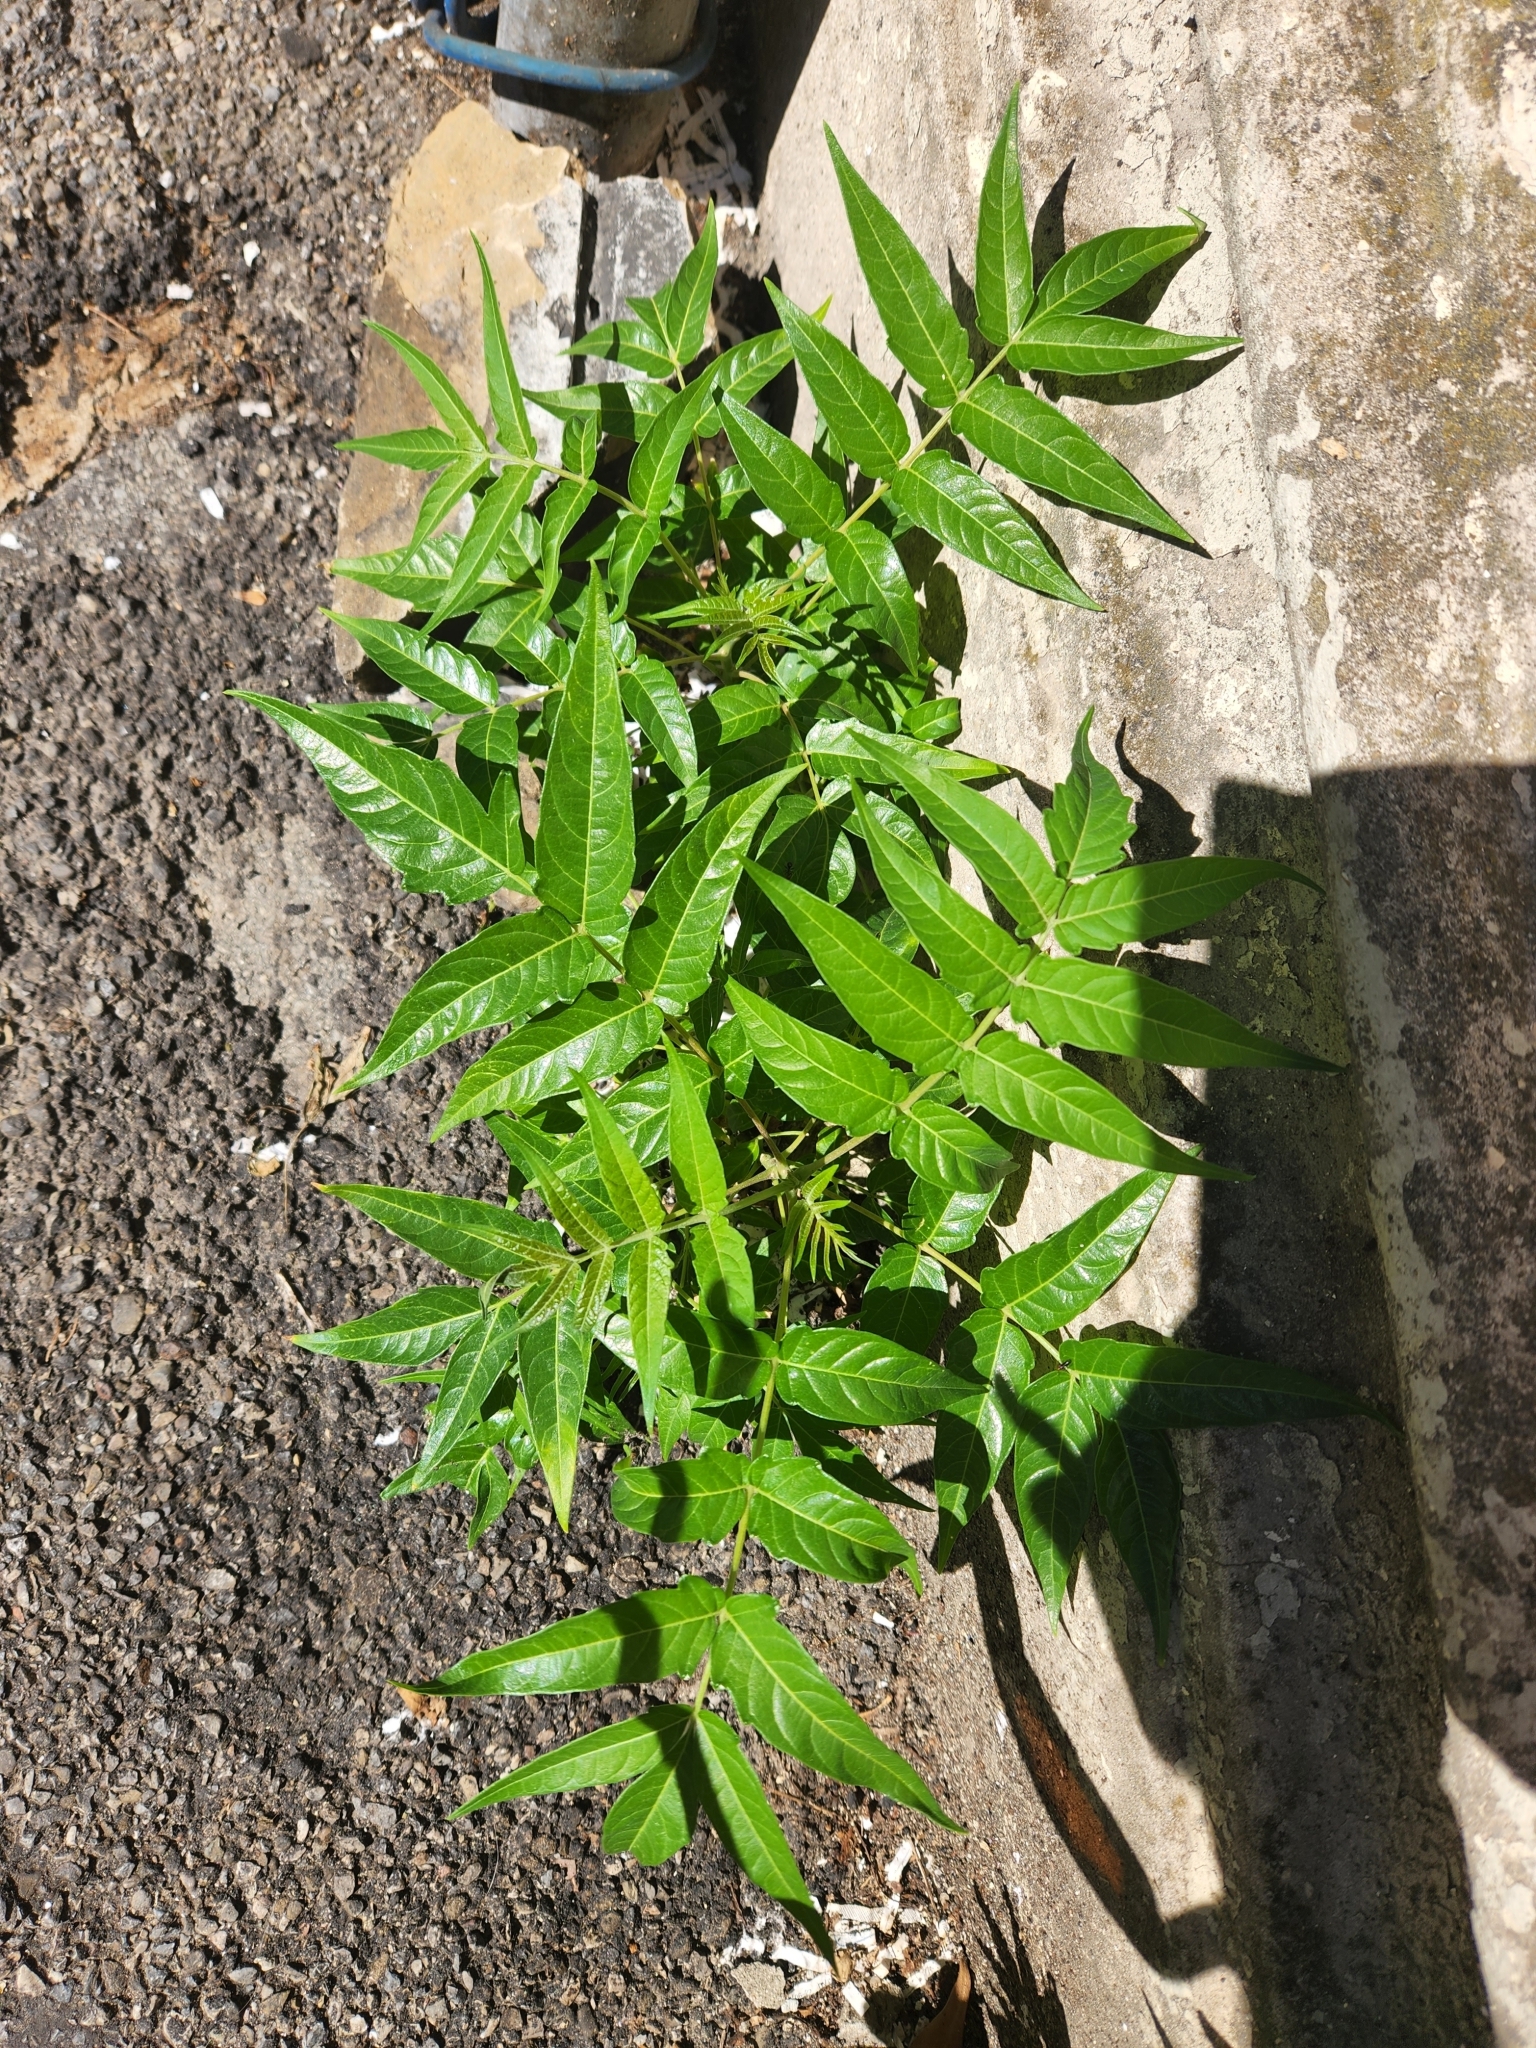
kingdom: Plantae
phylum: Tracheophyta
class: Magnoliopsida
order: Sapindales
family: Simaroubaceae
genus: Ailanthus
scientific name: Ailanthus altissima
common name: Tree-of-heaven
